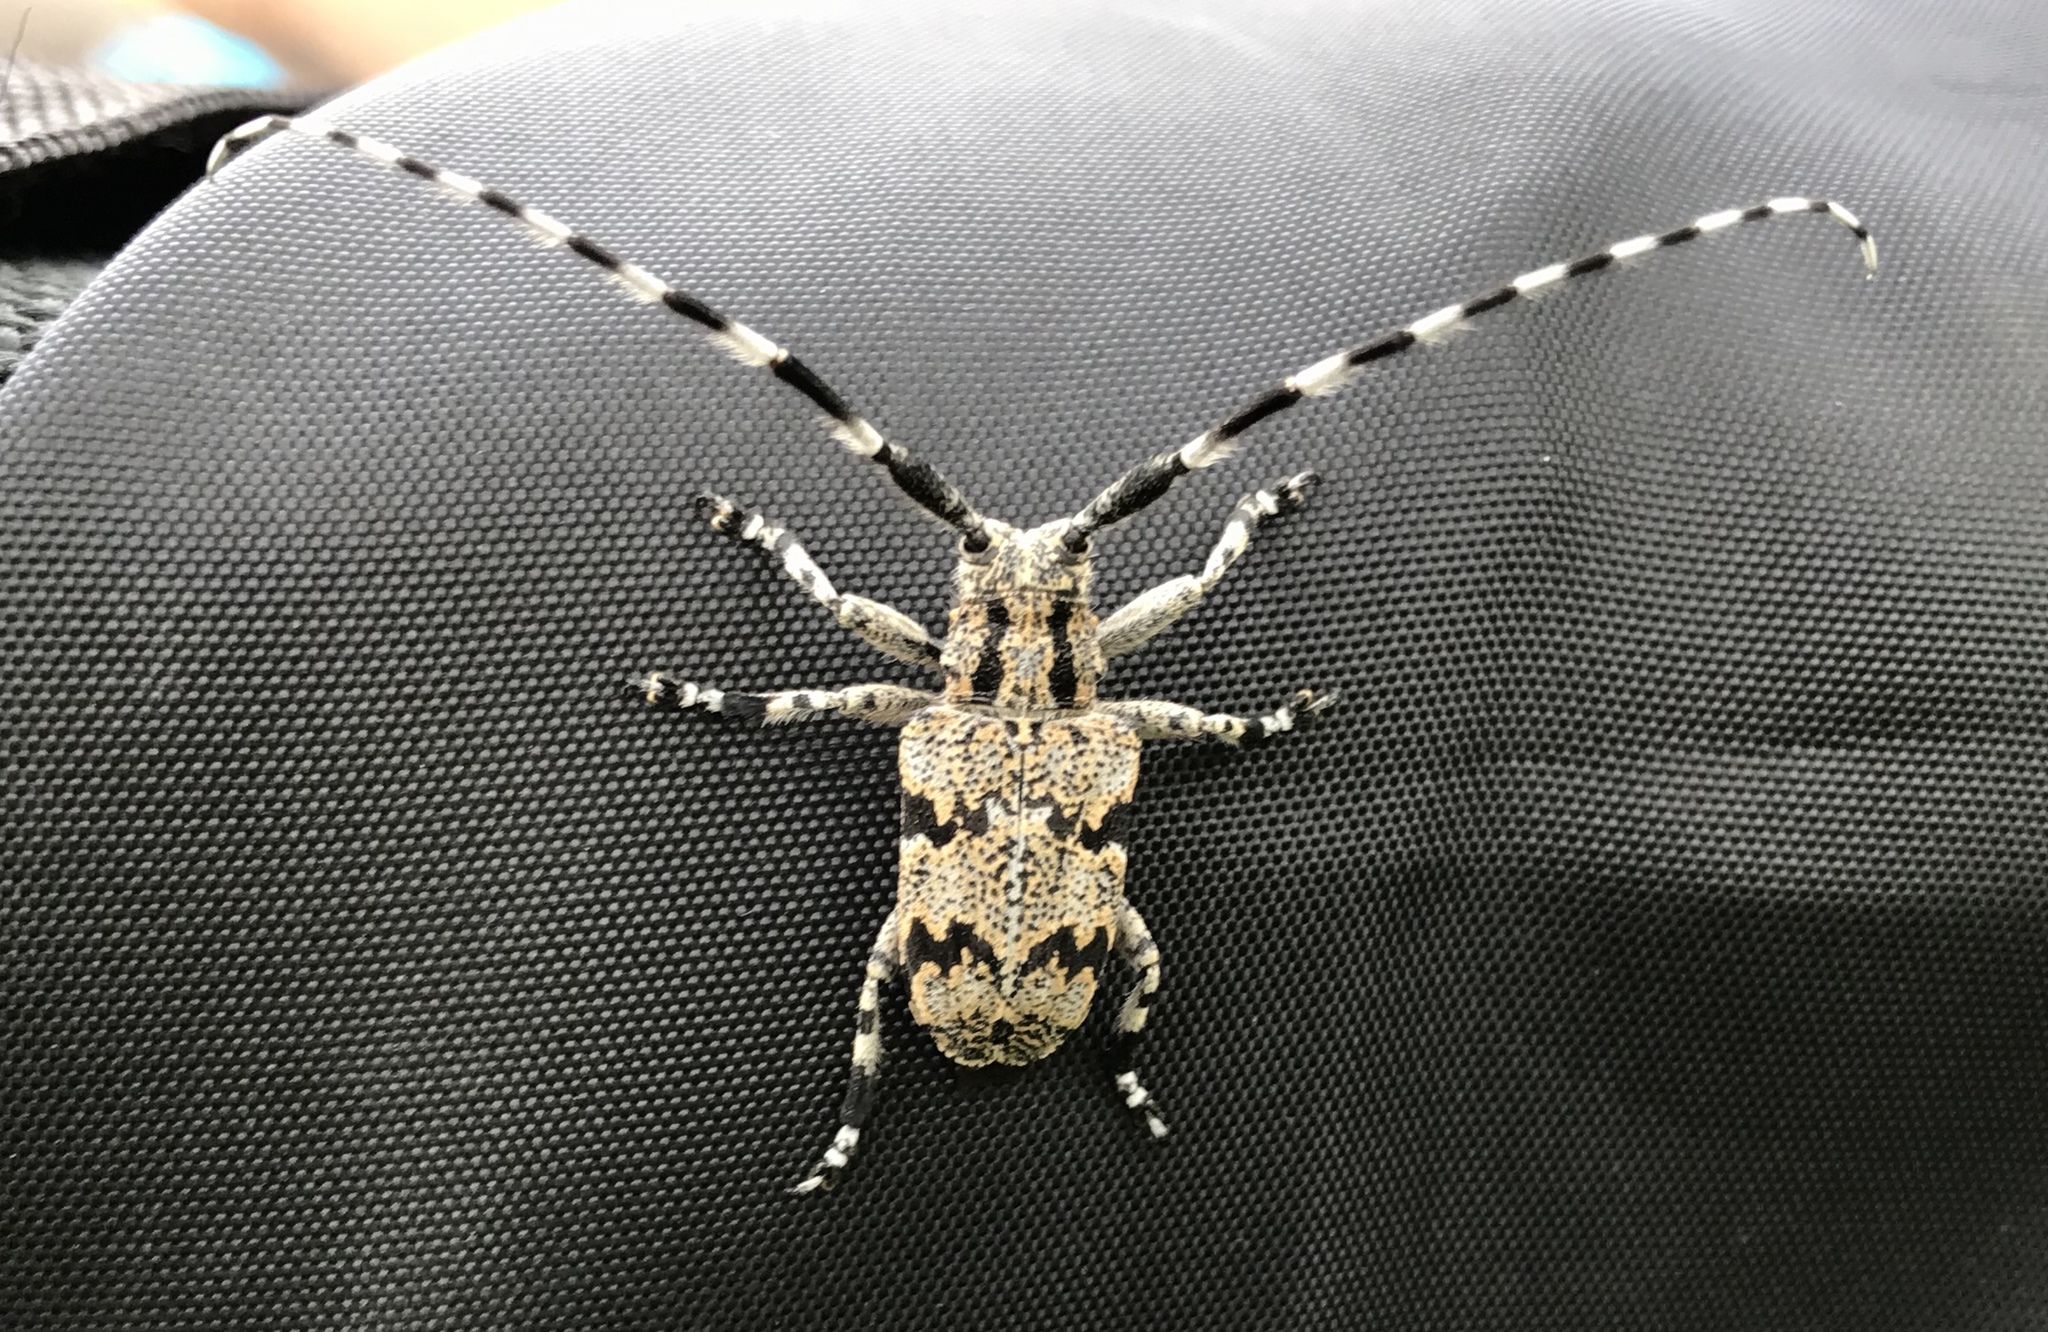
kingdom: Animalia
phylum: Arthropoda
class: Insecta
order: Coleoptera
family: Cerambycidae
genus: Synaphaeta
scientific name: Synaphaeta guexi
